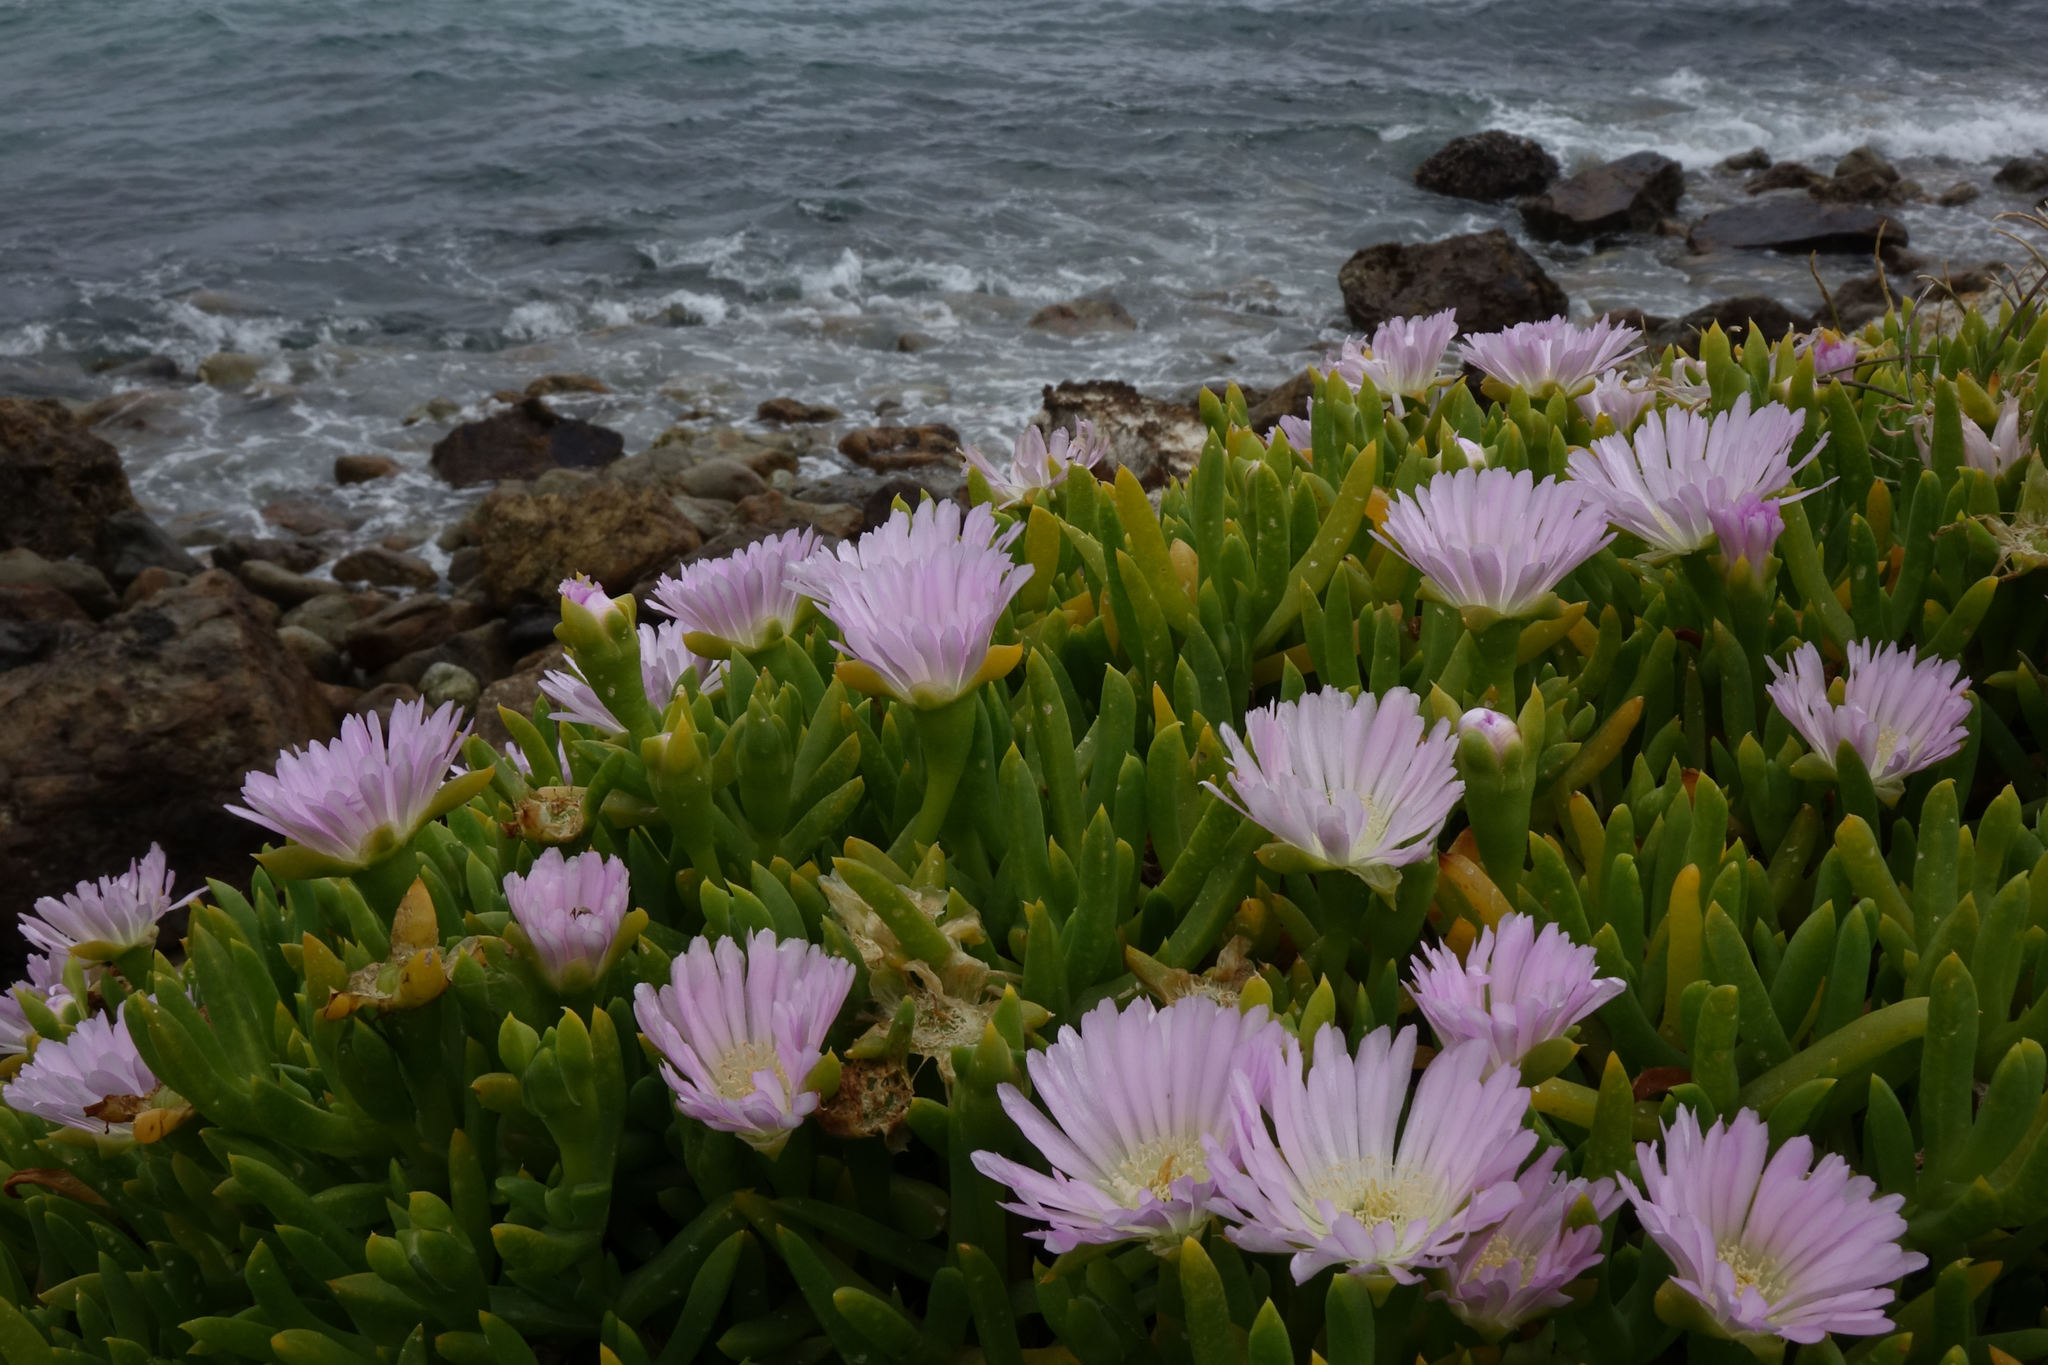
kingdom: Plantae
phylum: Tracheophyta
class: Magnoliopsida
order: Caryophyllales
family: Aizoaceae
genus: Disphyma
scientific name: Disphyma australe
